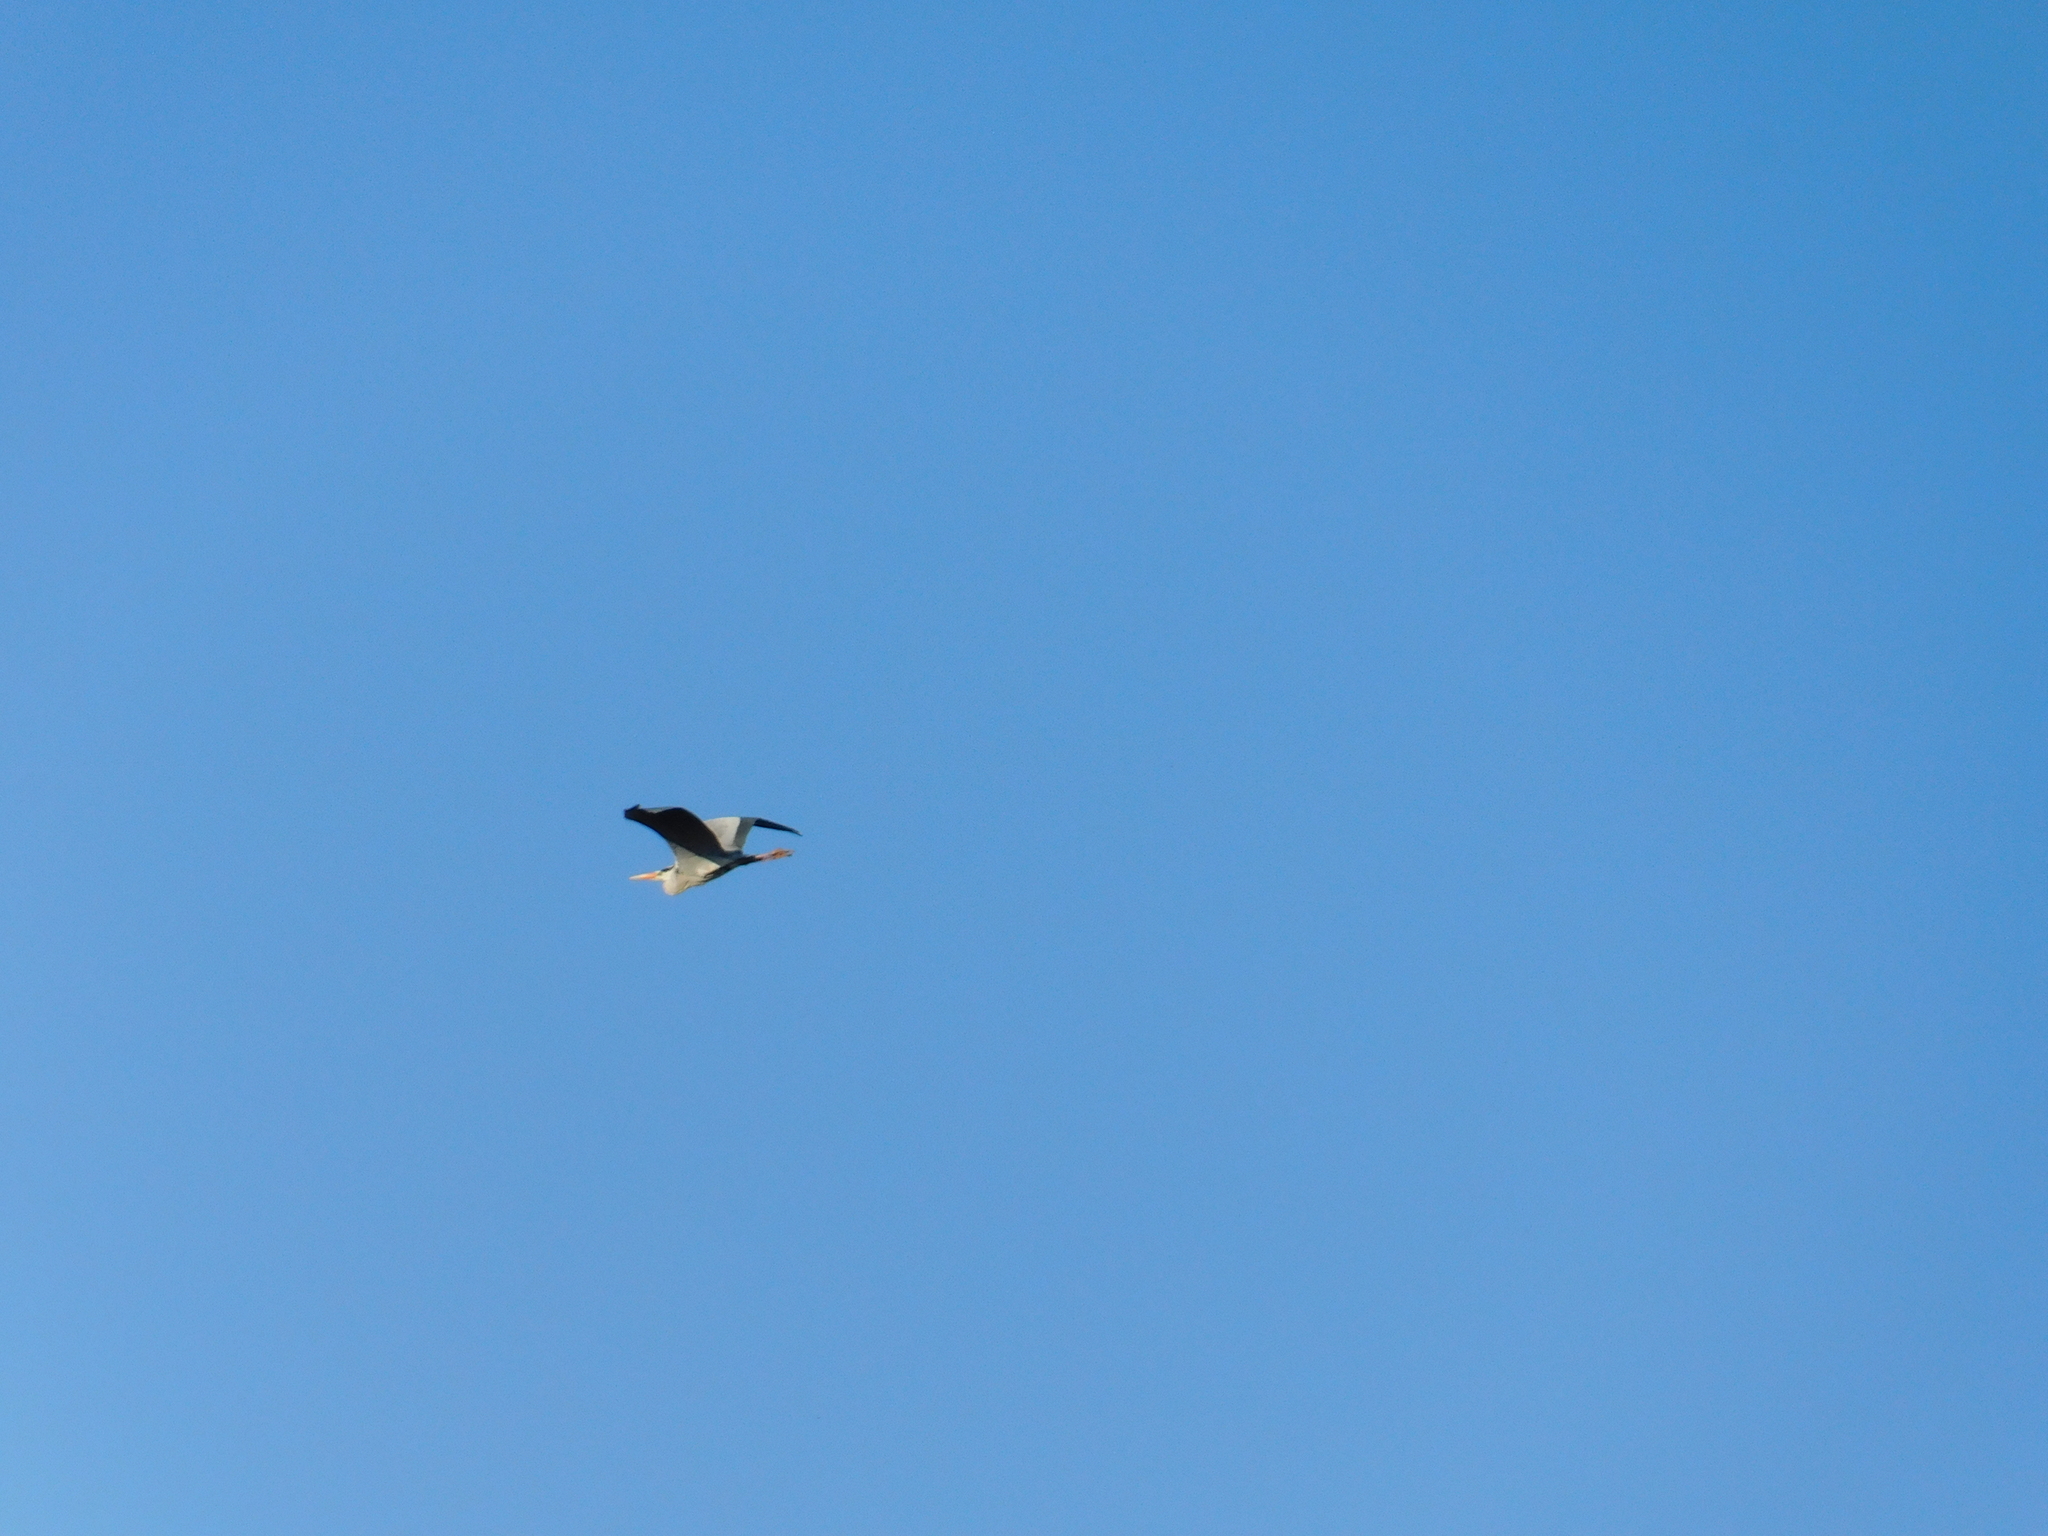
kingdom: Animalia
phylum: Chordata
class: Aves
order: Pelecaniformes
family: Ardeidae
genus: Ardea
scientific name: Ardea cinerea
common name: Grey heron
